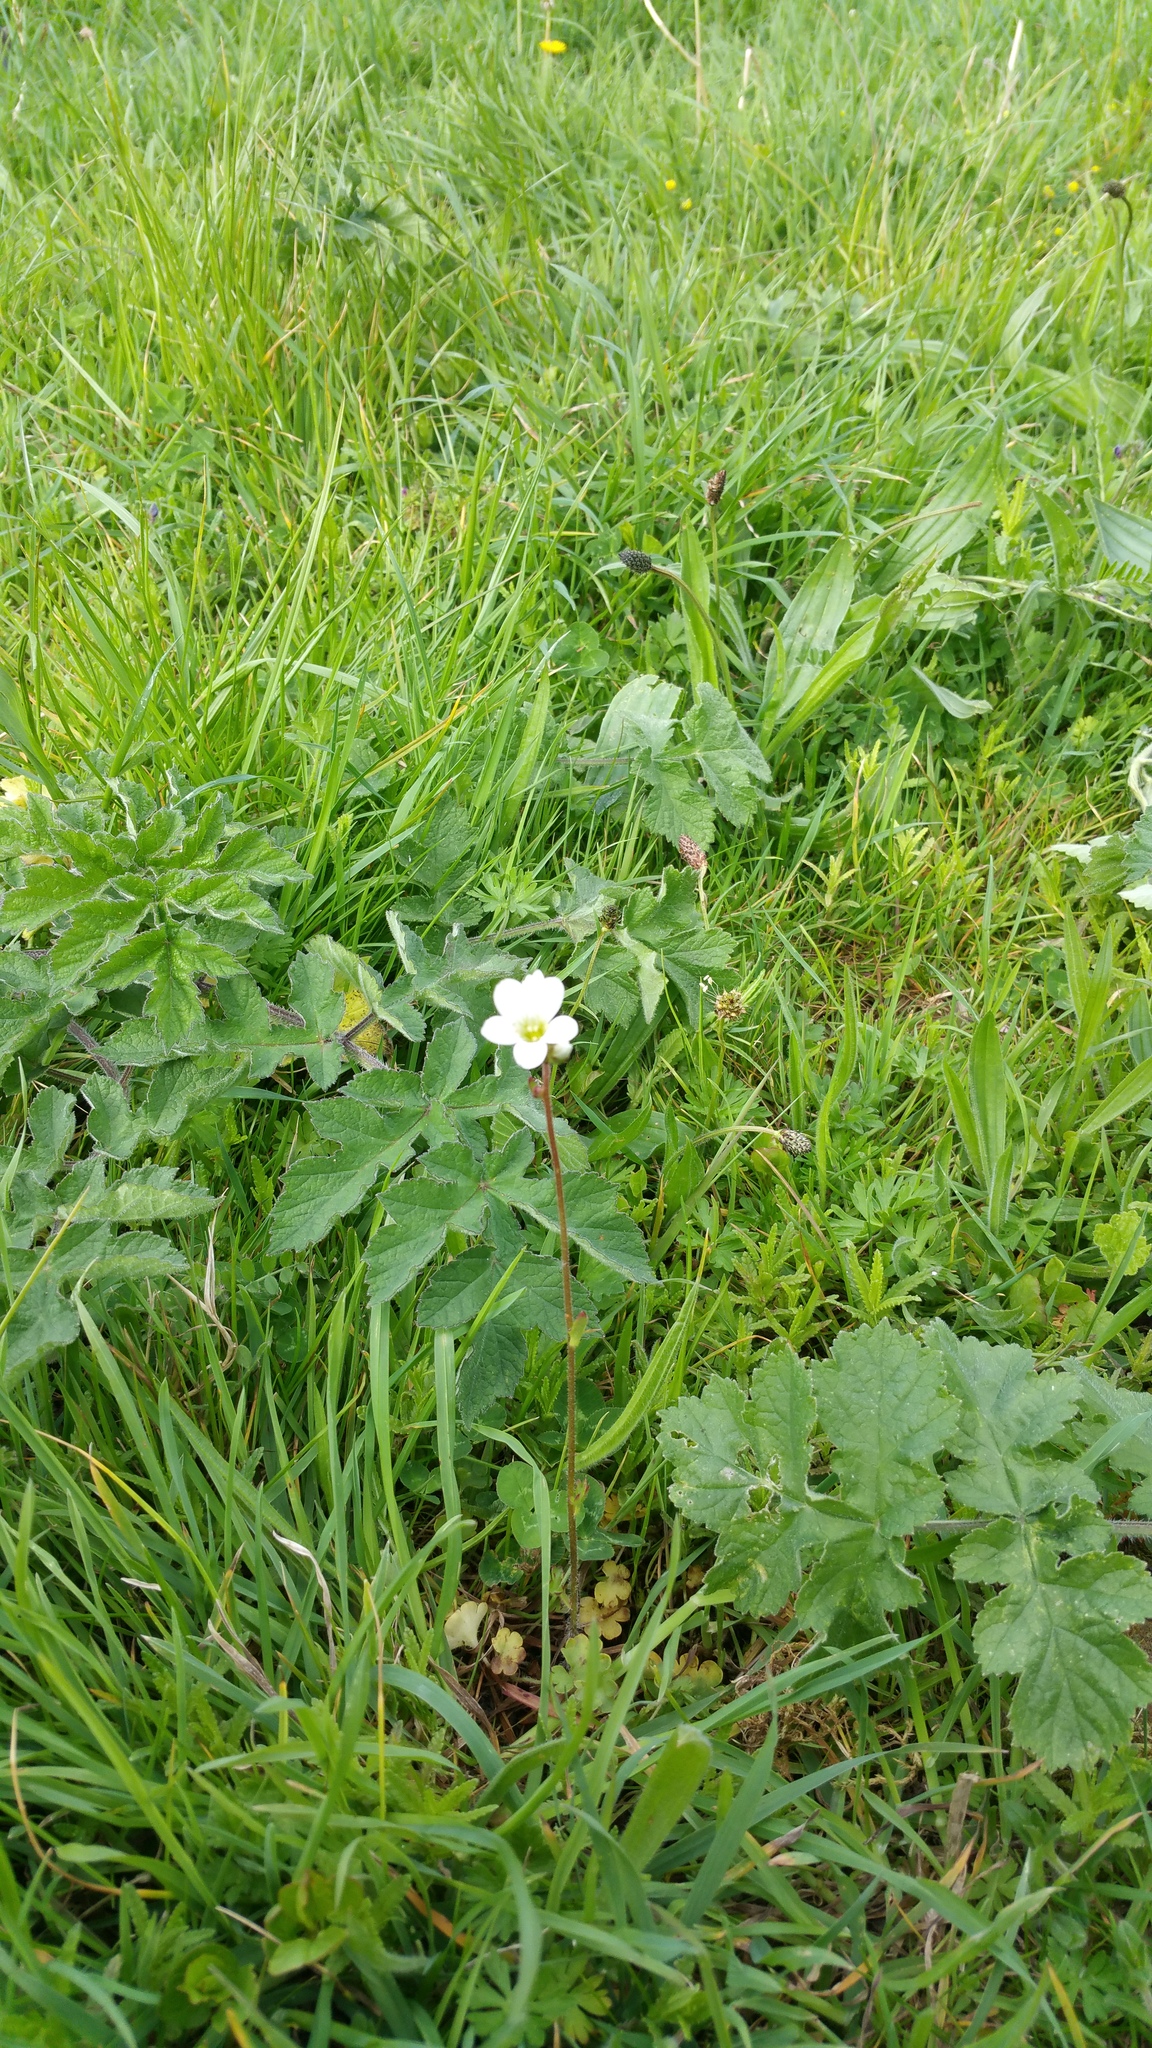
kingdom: Plantae
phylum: Tracheophyta
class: Magnoliopsida
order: Saxifragales
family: Saxifragaceae
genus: Saxifraga
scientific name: Saxifraga granulata
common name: Meadow saxifrage
